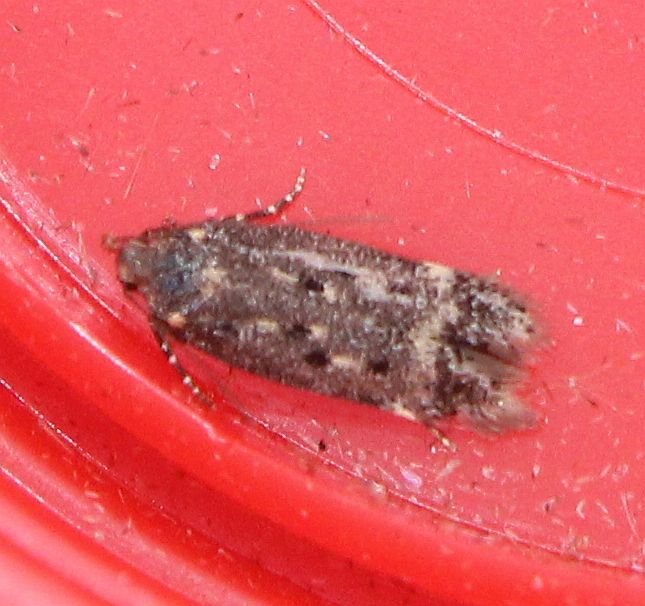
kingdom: Animalia
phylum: Arthropoda
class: Insecta
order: Lepidoptera
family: Gelechiidae
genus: Bryotropha
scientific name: Bryotropha affinis
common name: Dark groundling
